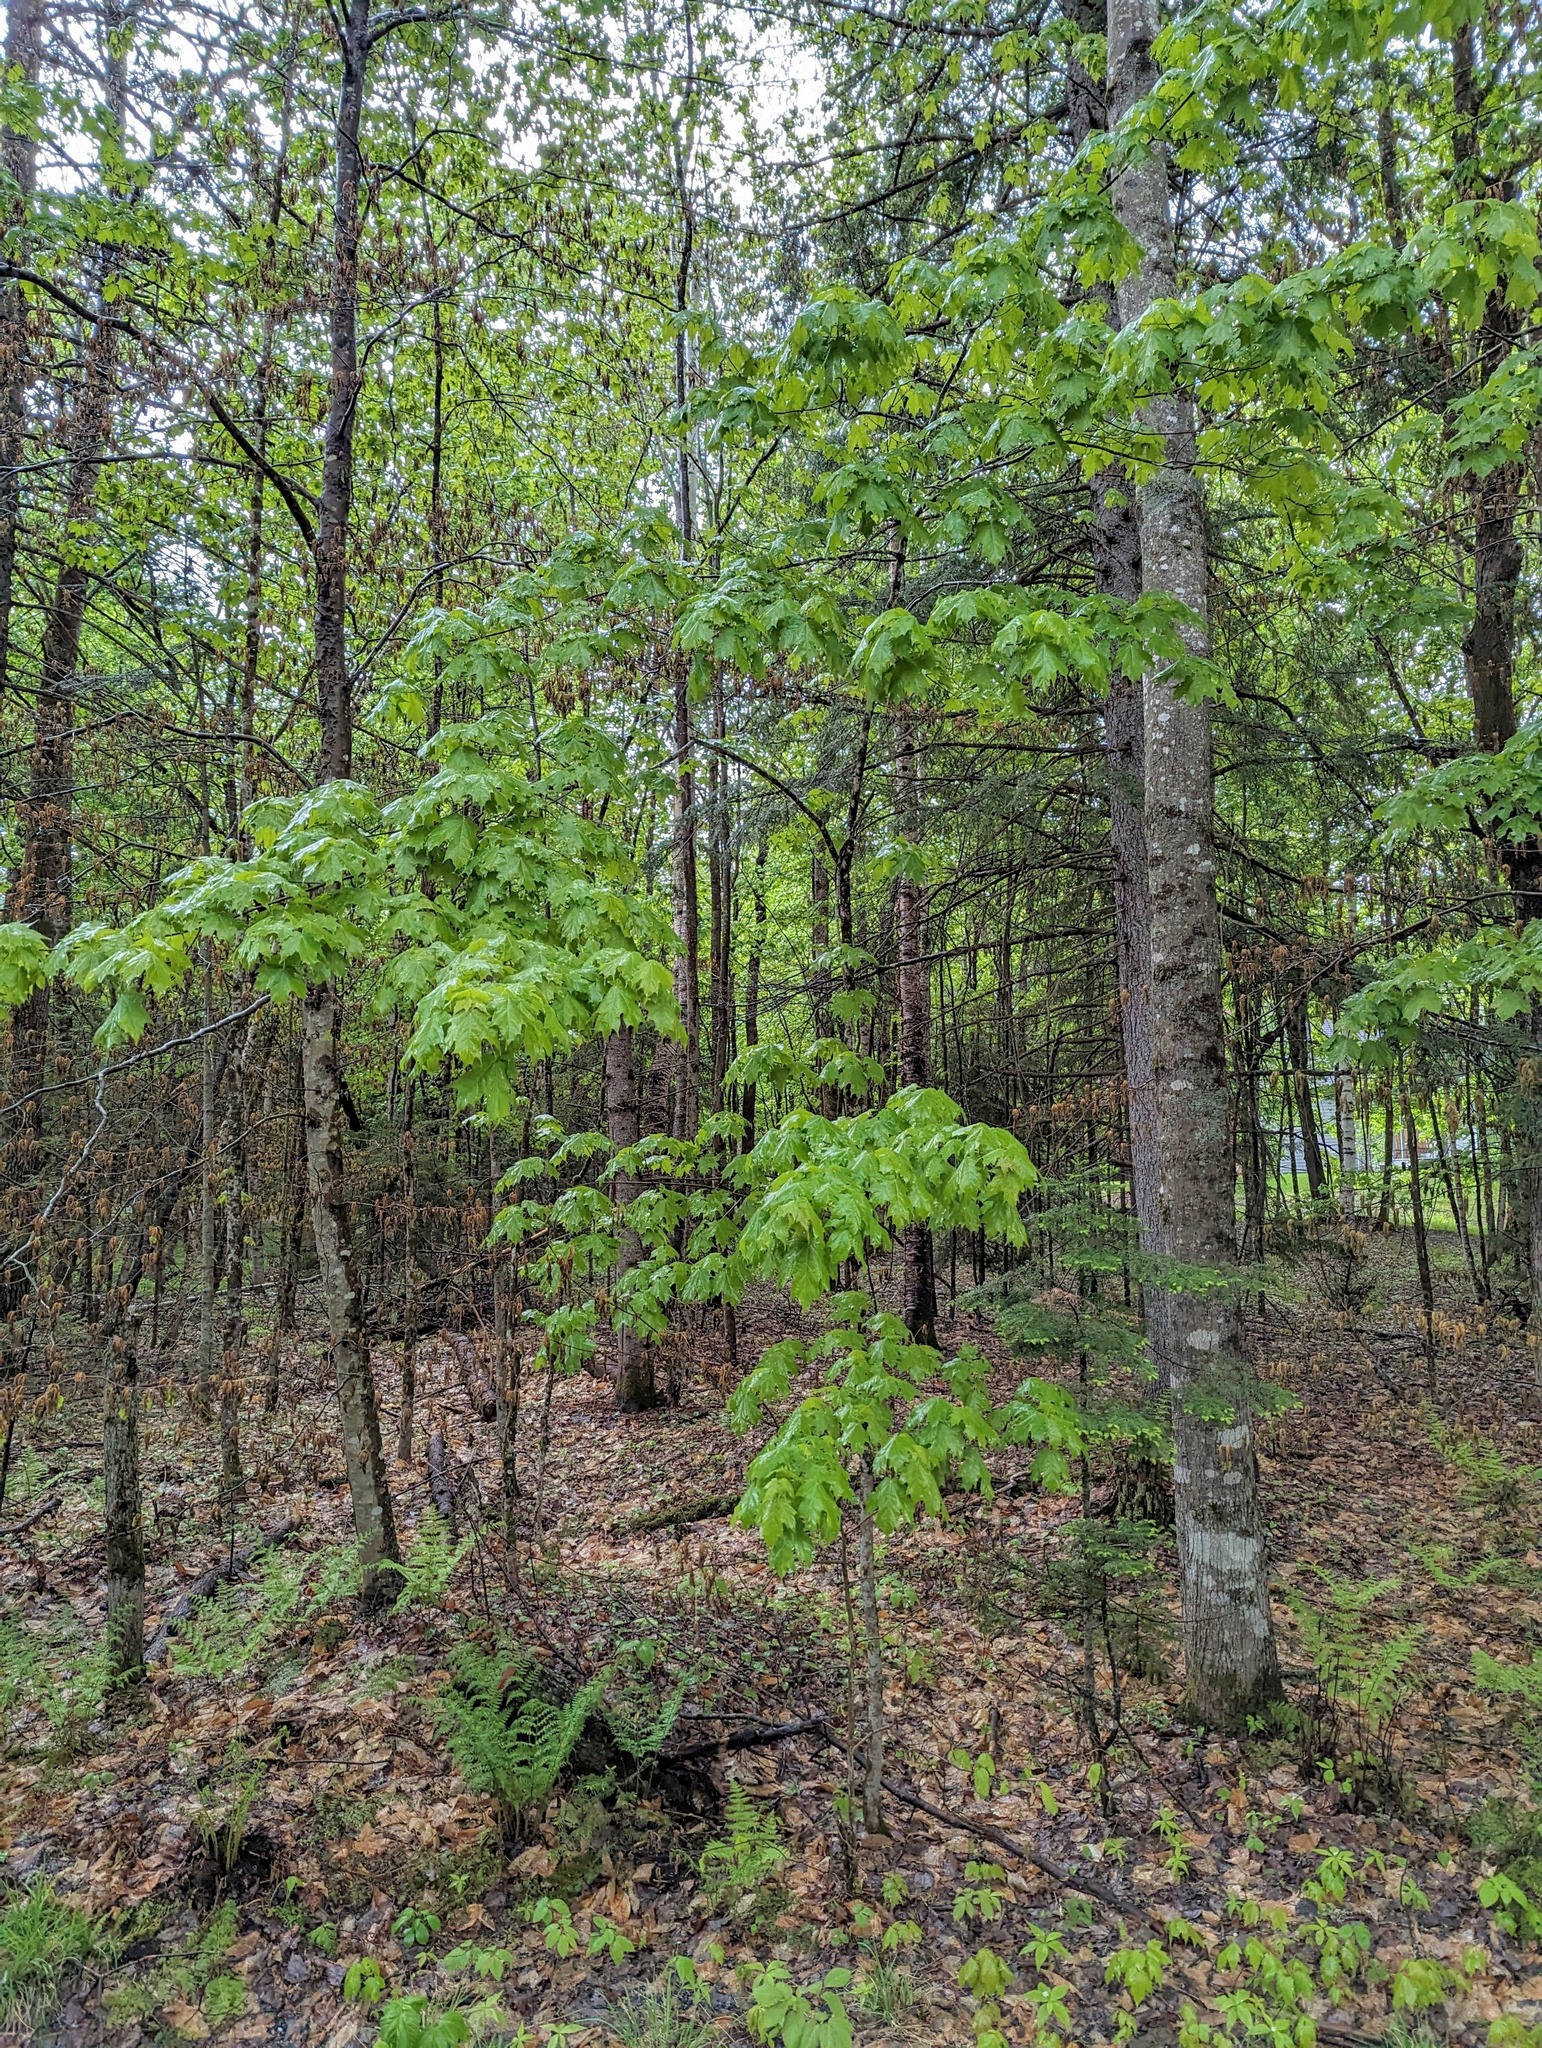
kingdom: Plantae
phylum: Tracheophyta
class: Magnoliopsida
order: Sapindales
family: Sapindaceae
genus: Acer
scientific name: Acer saccharum
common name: Sugar maple
